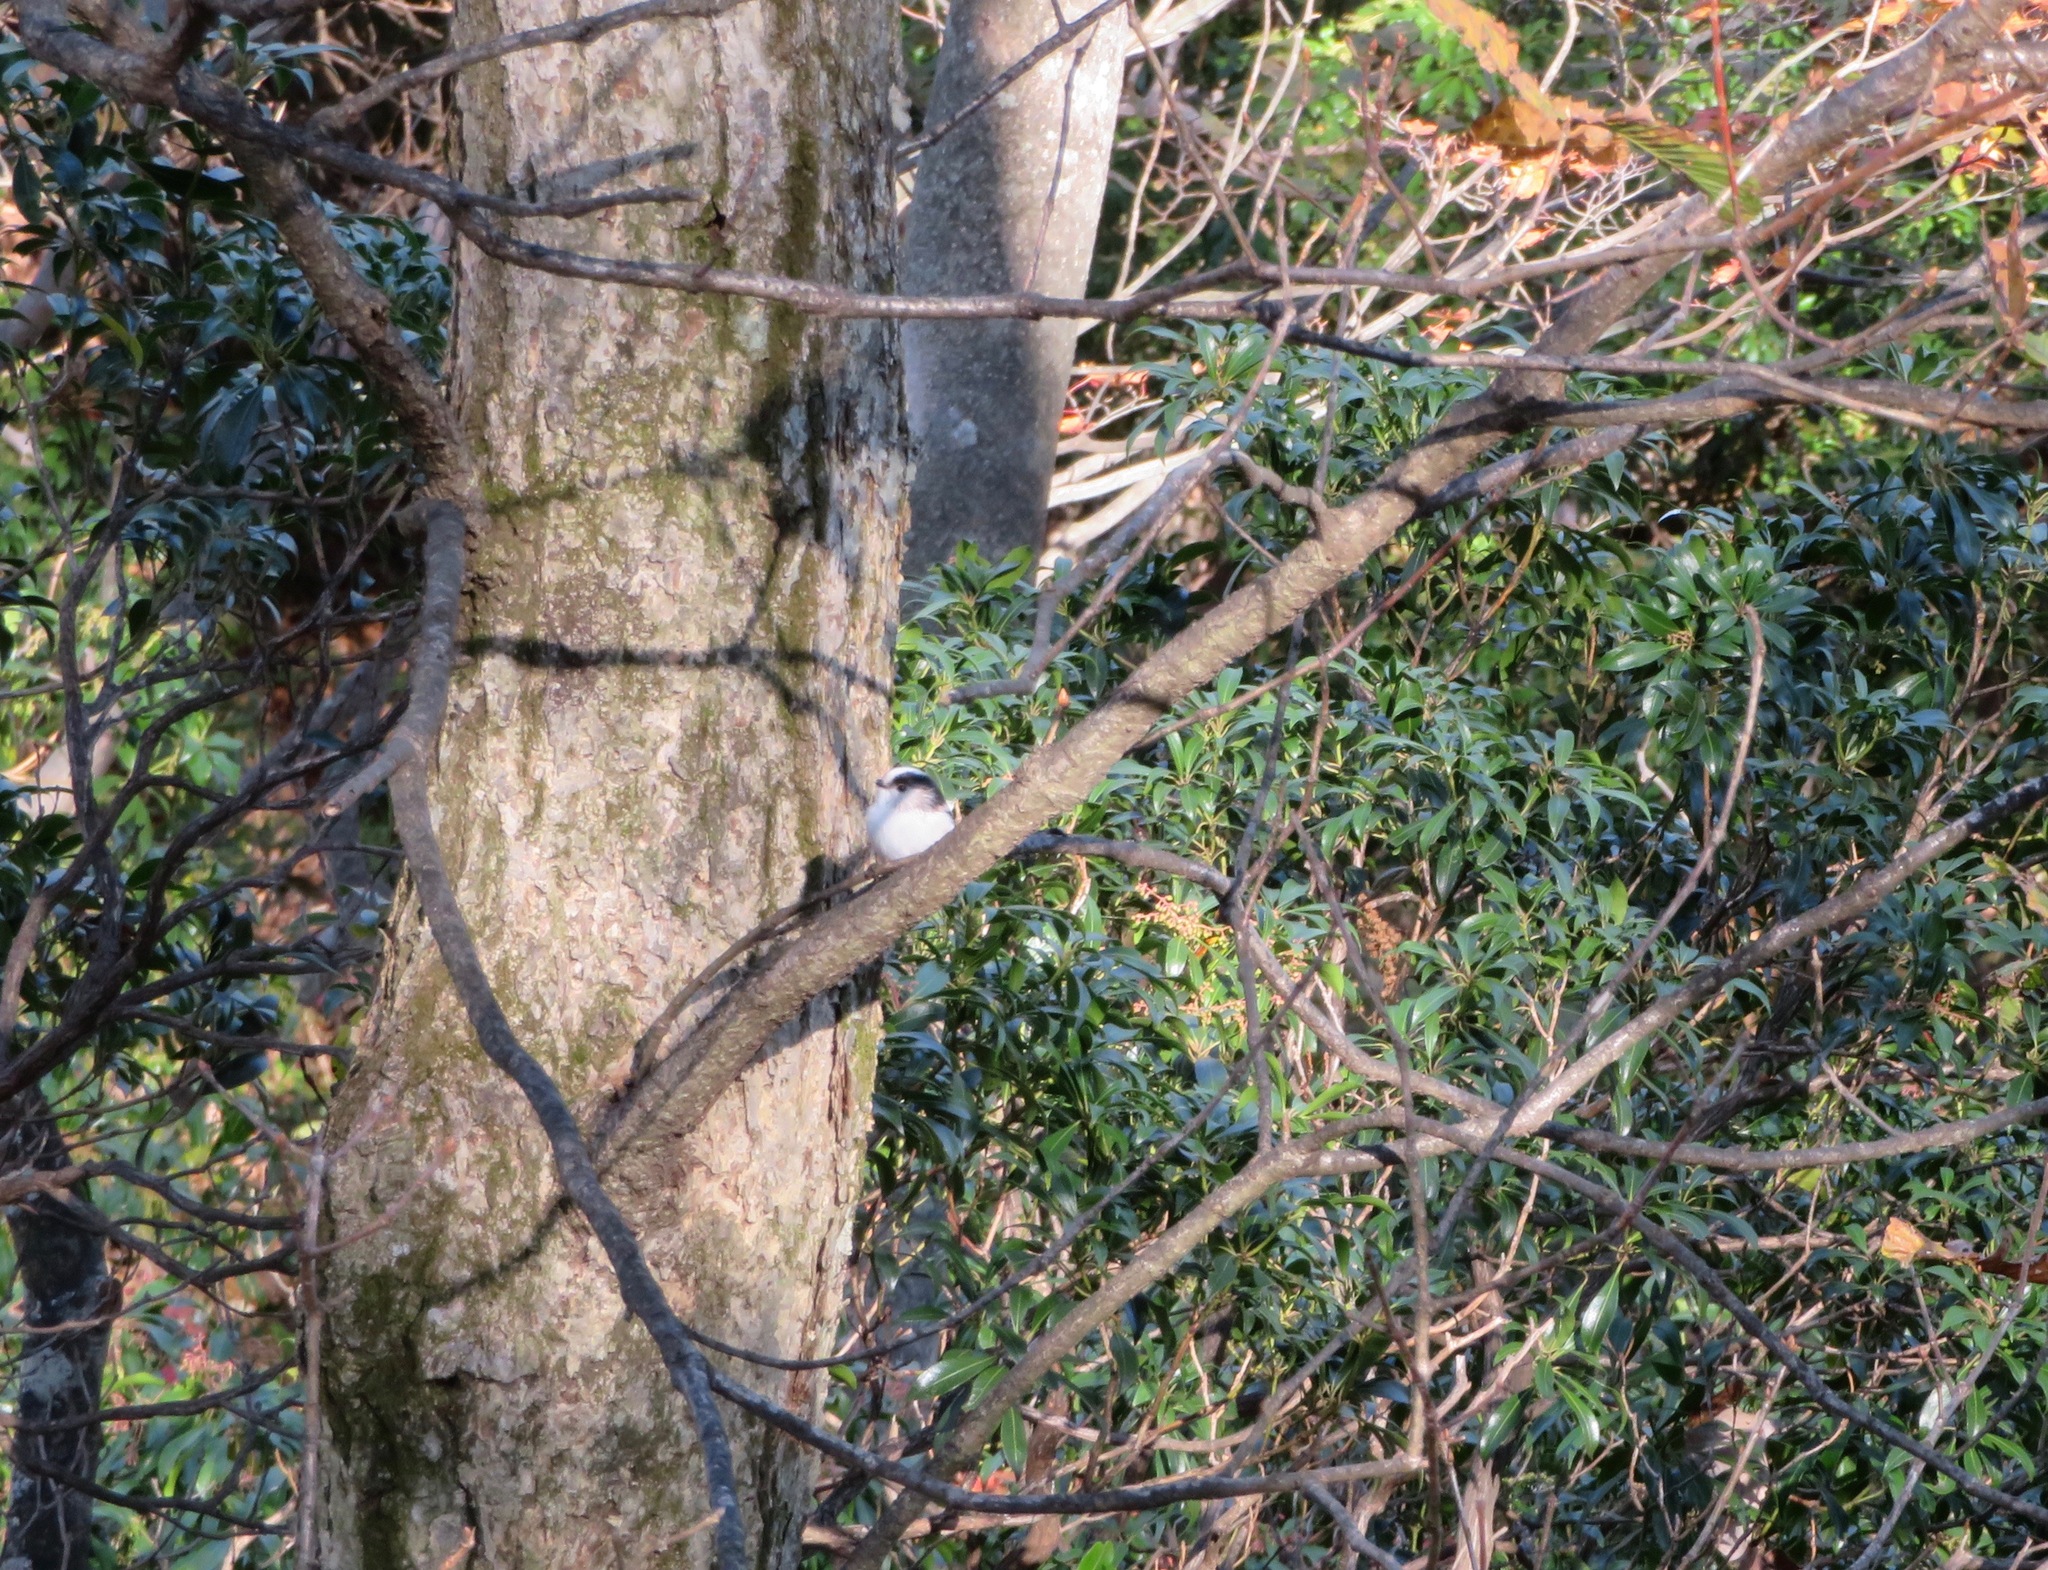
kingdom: Animalia
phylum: Chordata
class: Aves
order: Passeriformes
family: Aegithalidae
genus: Aegithalos
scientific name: Aegithalos caudatus
